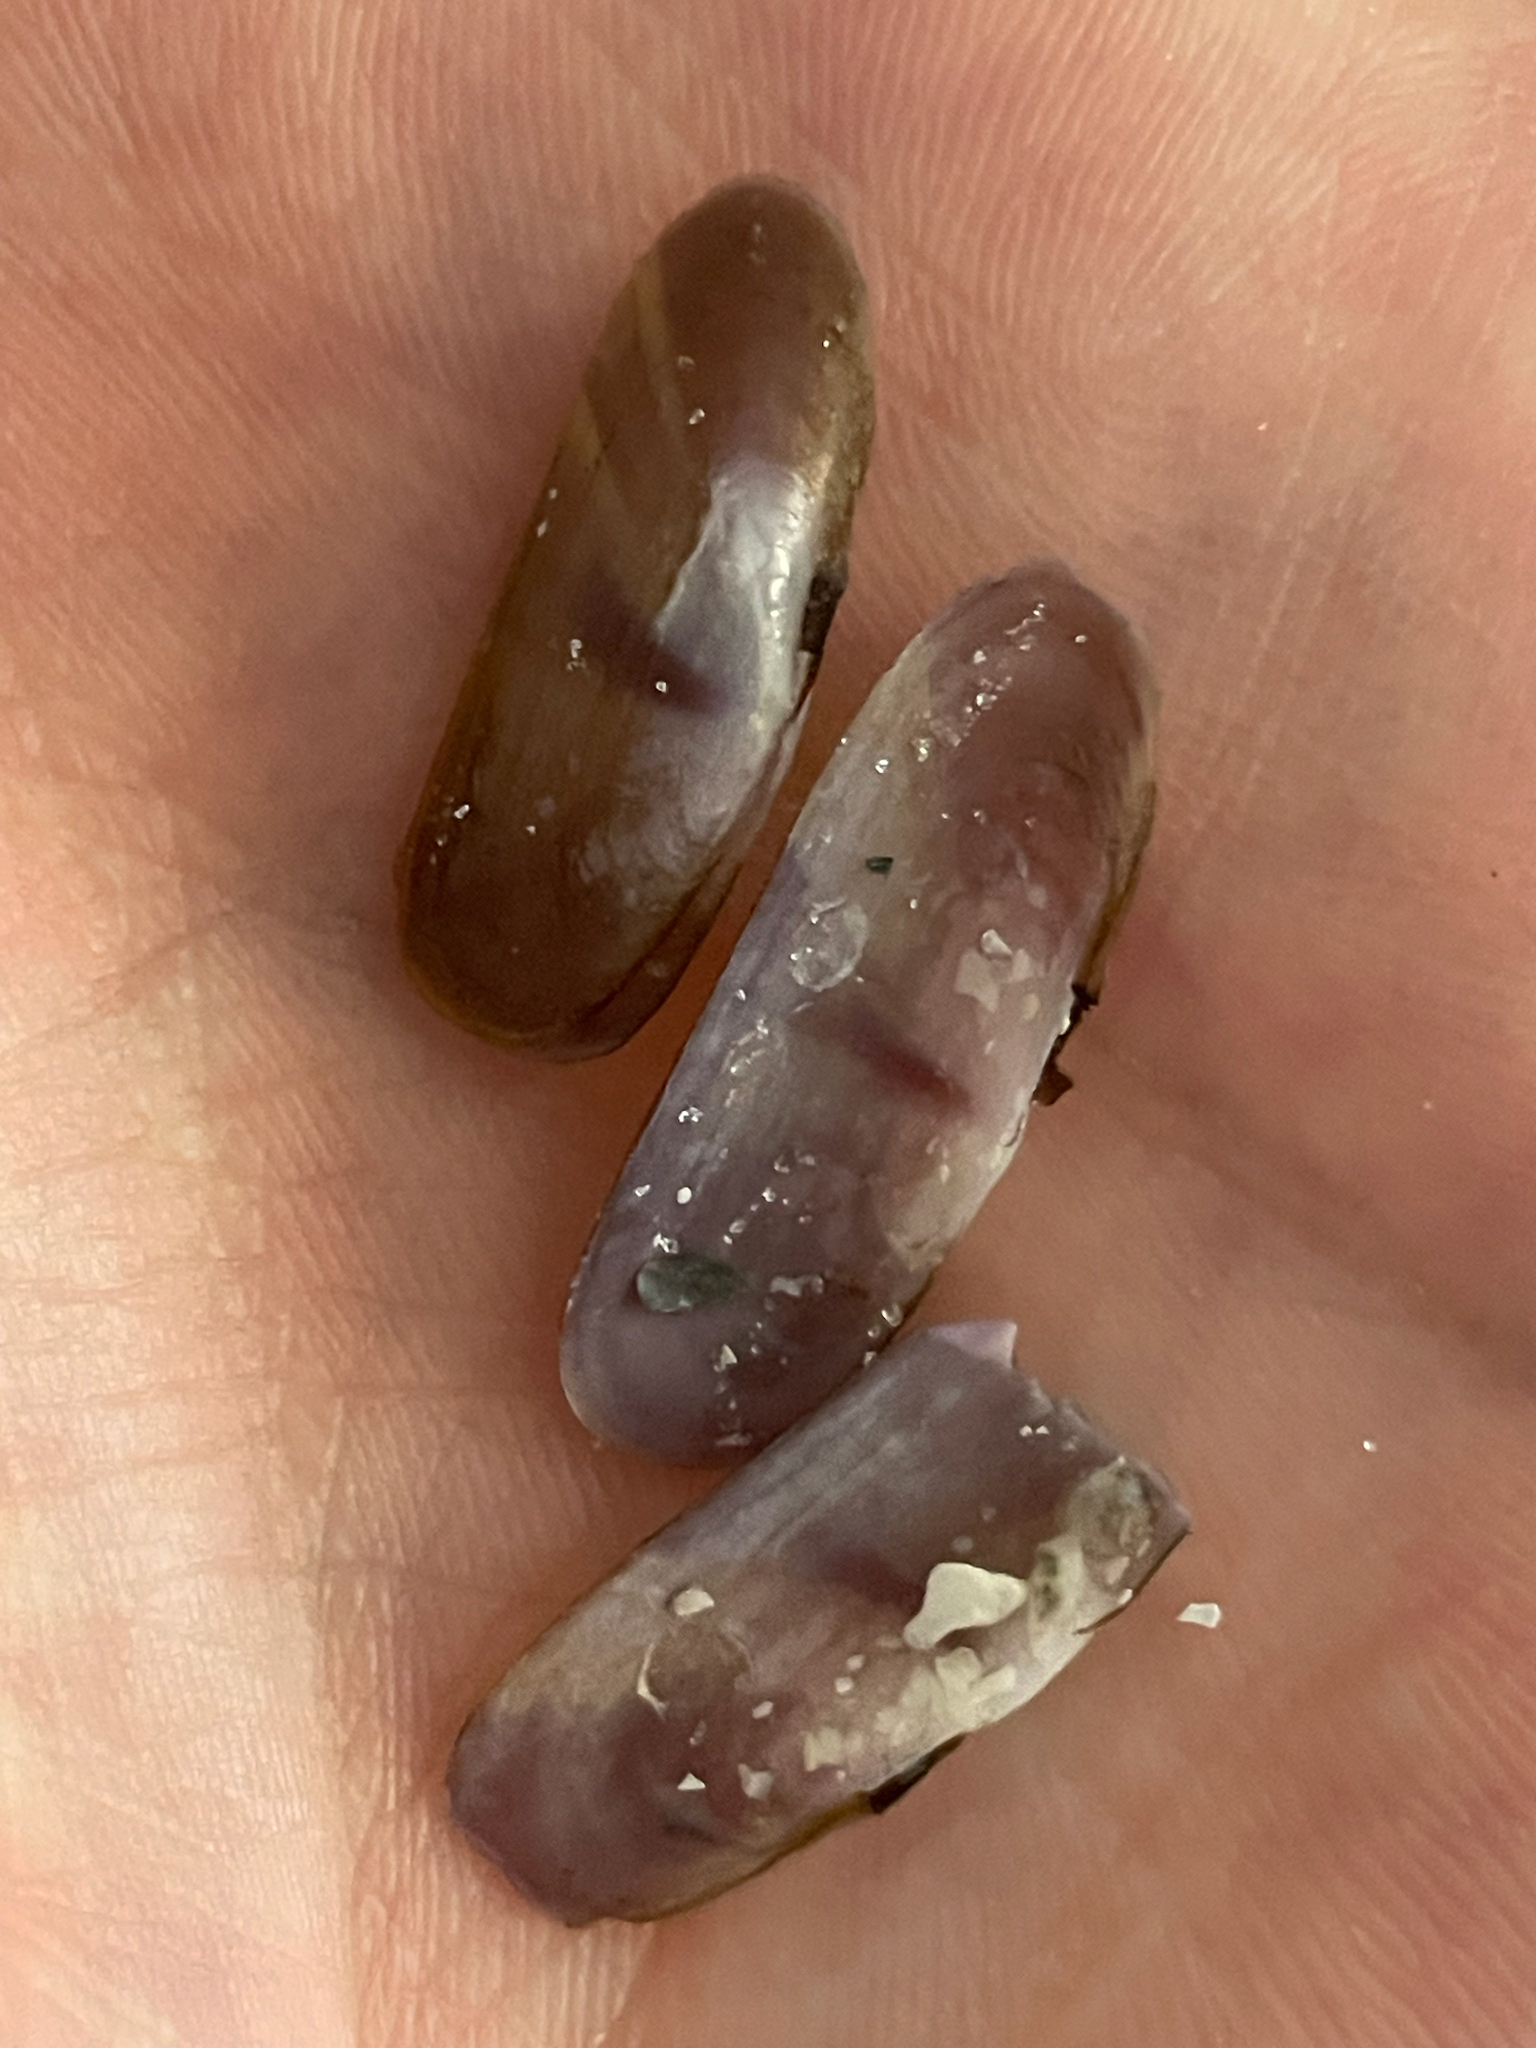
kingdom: Animalia
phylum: Mollusca
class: Bivalvia
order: Cardiida
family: Solecurtidae
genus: Tagelus
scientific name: Tagelus divisus
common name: Purplish tagelus
